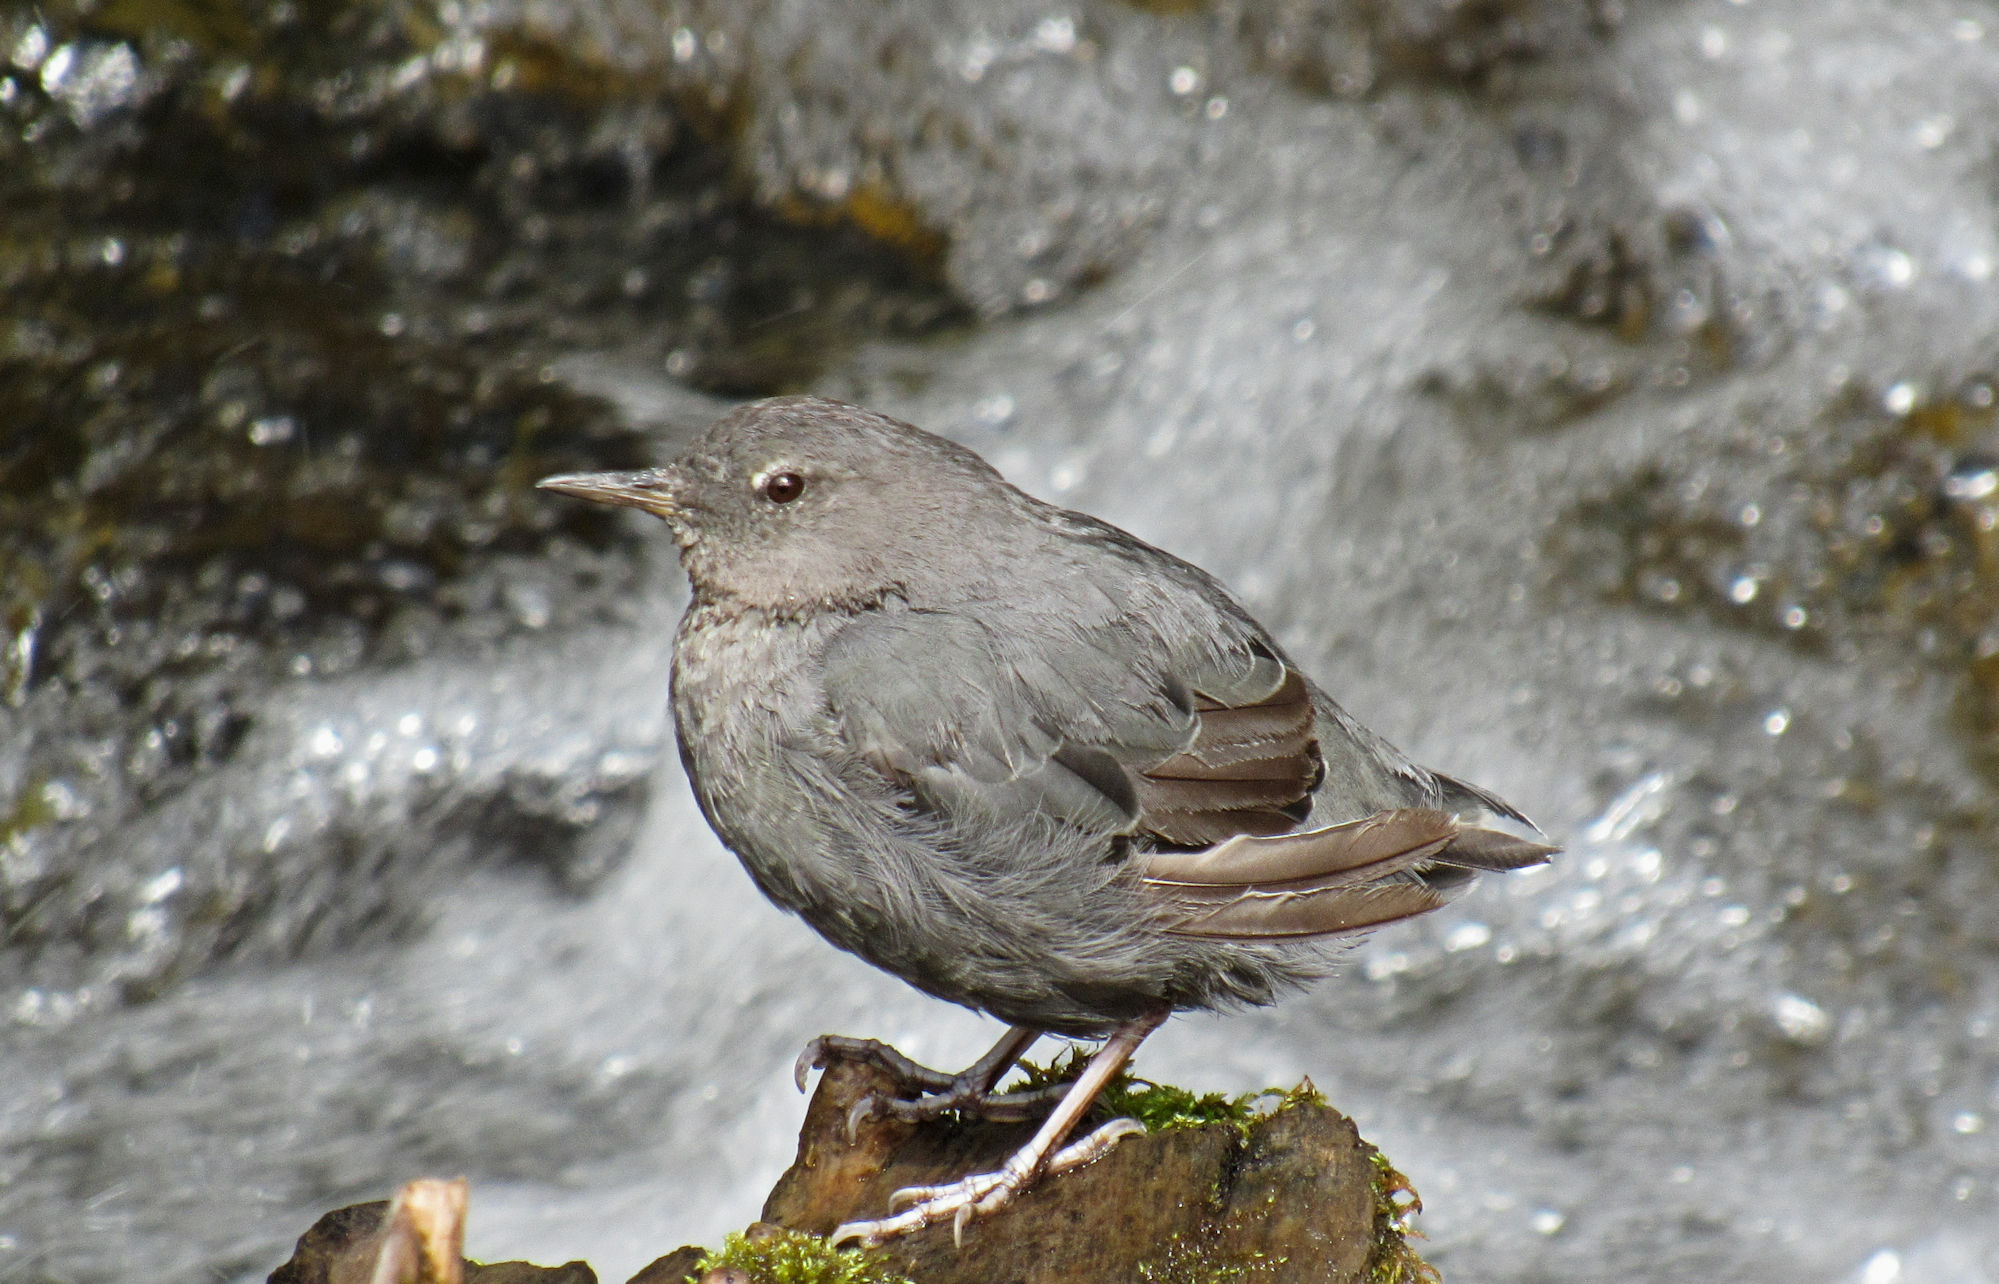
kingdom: Animalia
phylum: Chordata
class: Aves
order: Passeriformes
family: Cinclidae
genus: Cinclus
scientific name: Cinclus mexicanus
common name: American dipper
